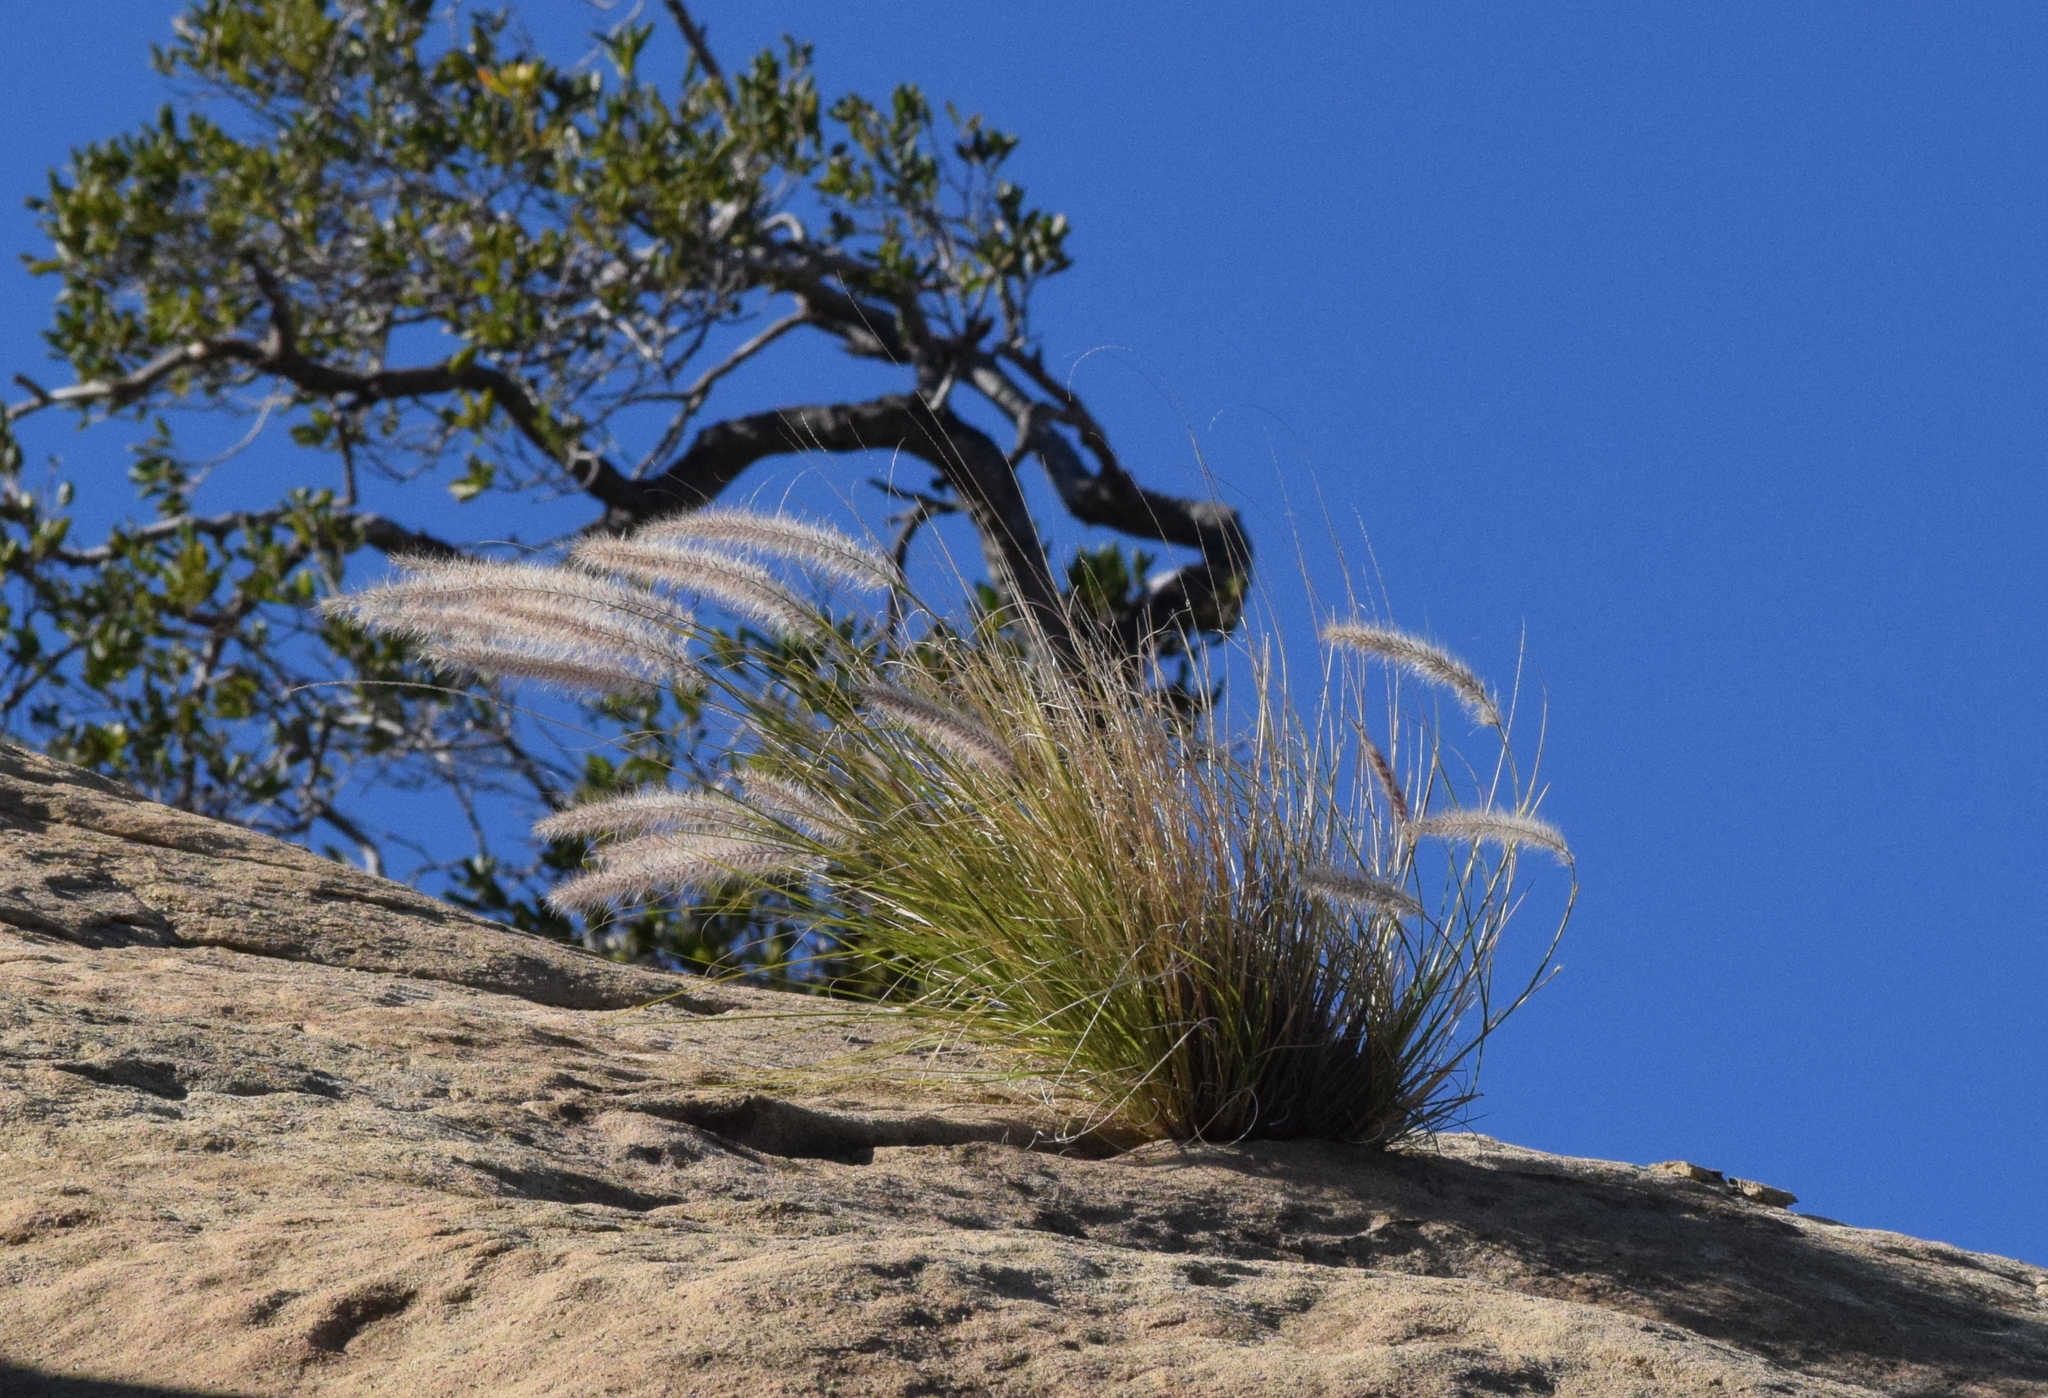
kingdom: Plantae
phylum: Tracheophyta
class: Liliopsida
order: Poales
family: Poaceae
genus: Cenchrus
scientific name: Cenchrus setaceus
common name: Crimson fountaingrass
